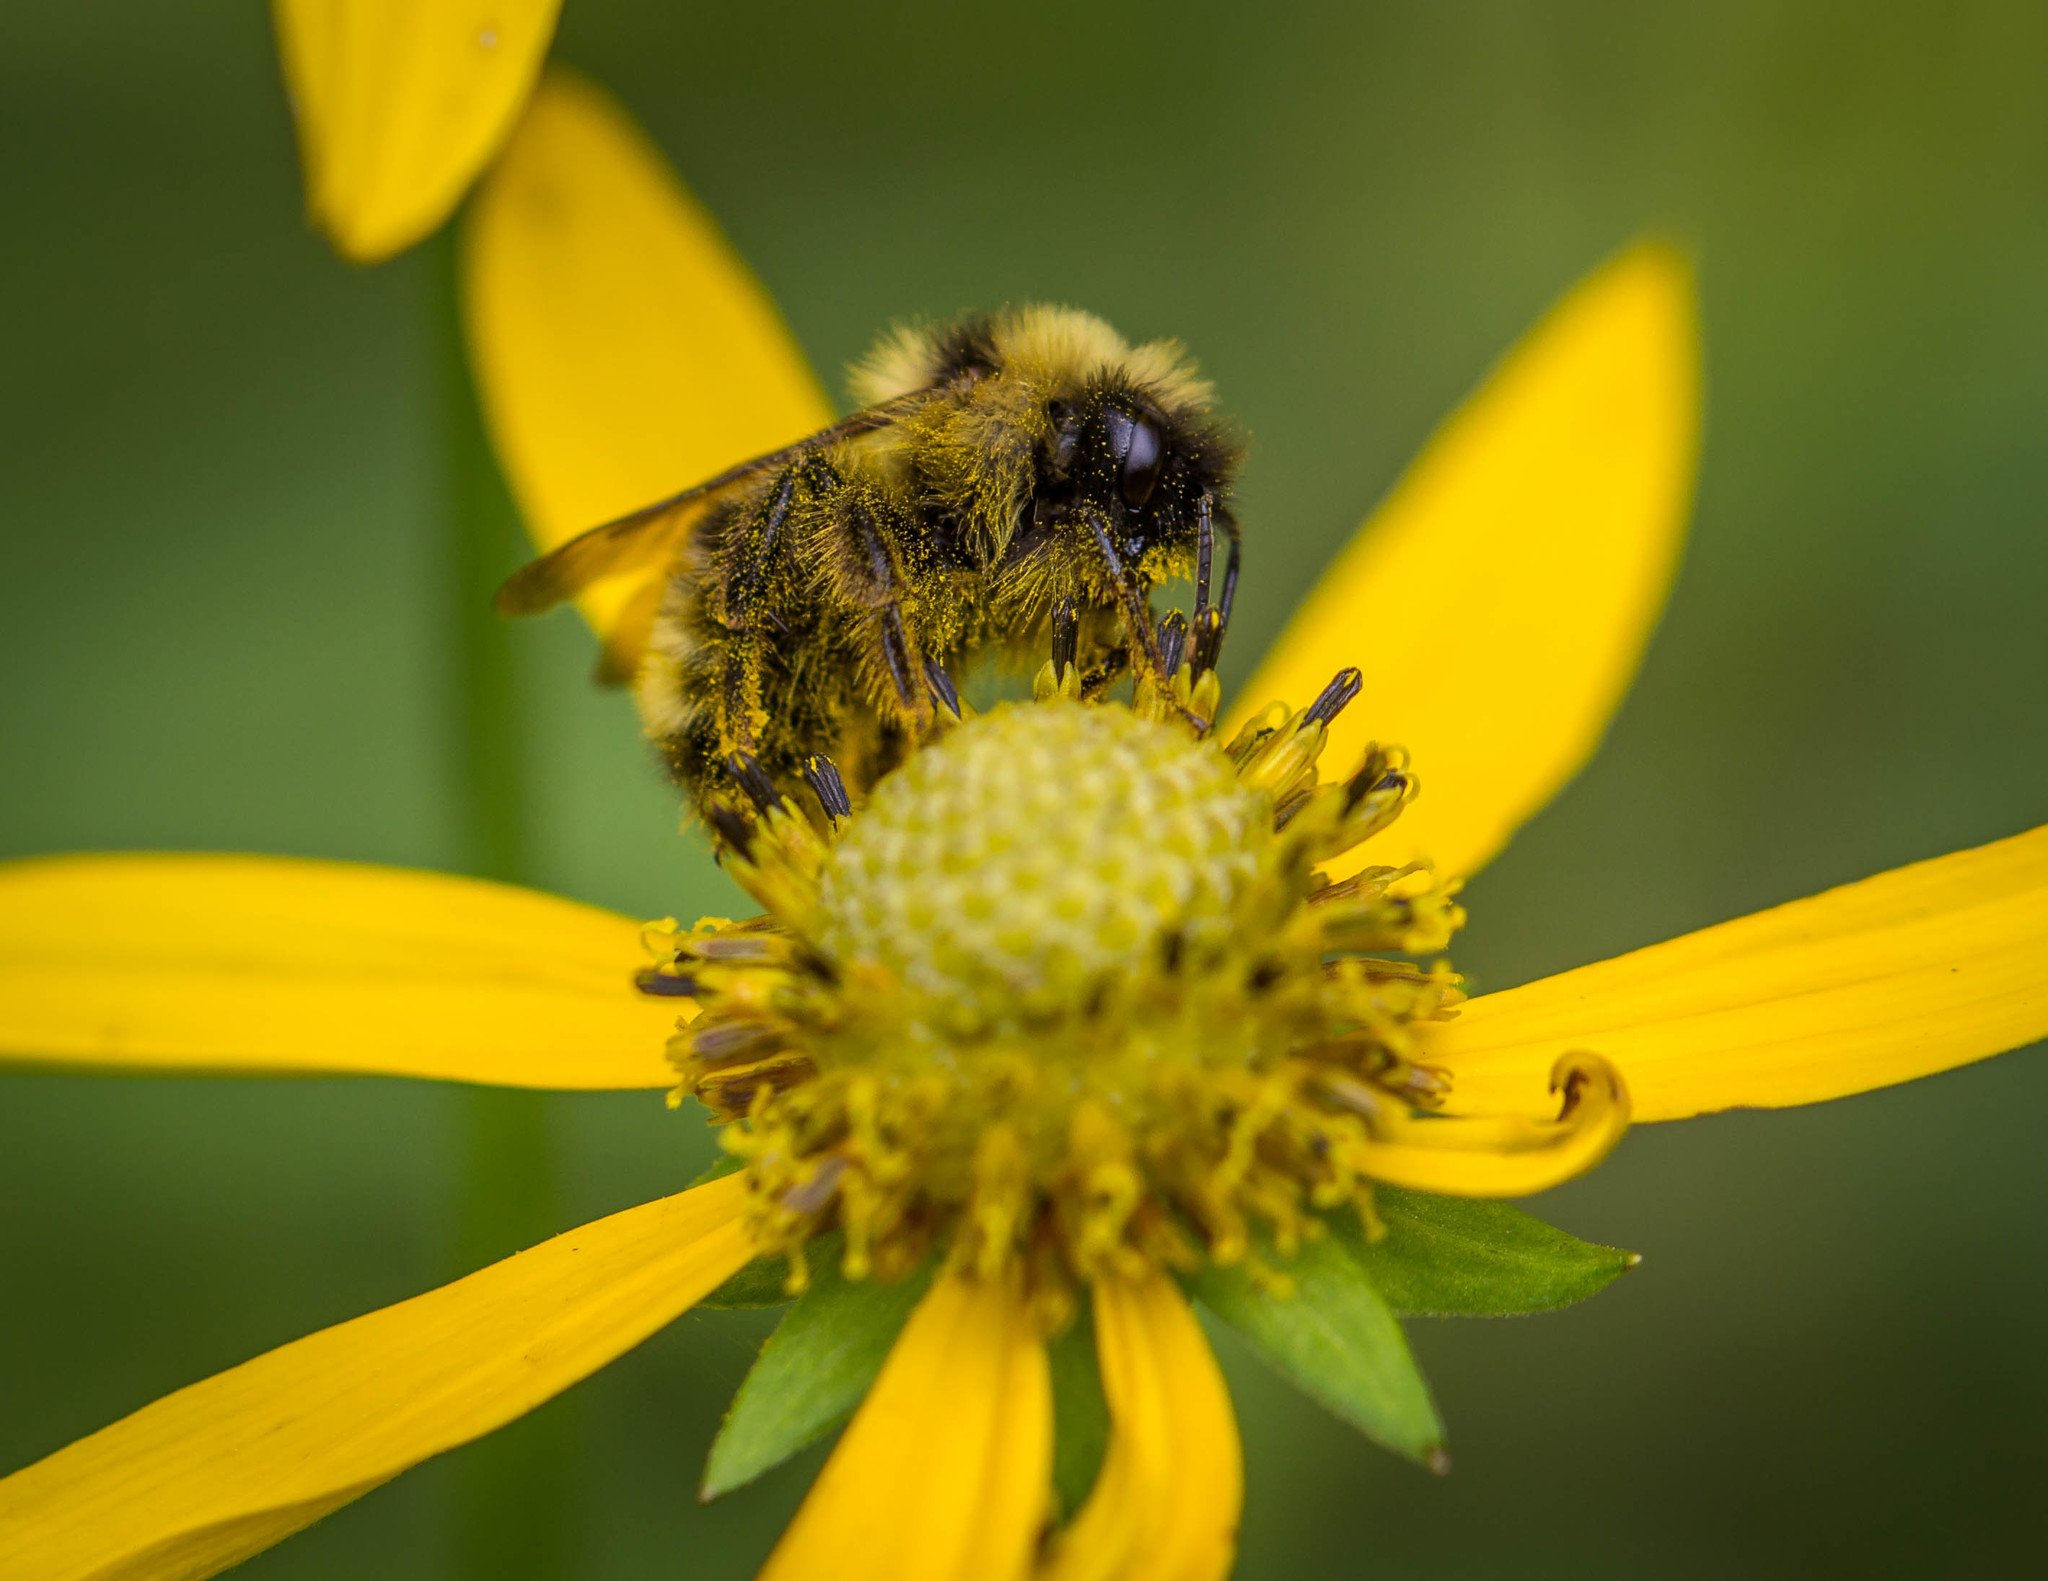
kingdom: Animalia
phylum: Arthropoda
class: Insecta
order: Hymenoptera
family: Apidae
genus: Bombus
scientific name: Bombus flavidus
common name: Fernald cuckoo bumble bee
